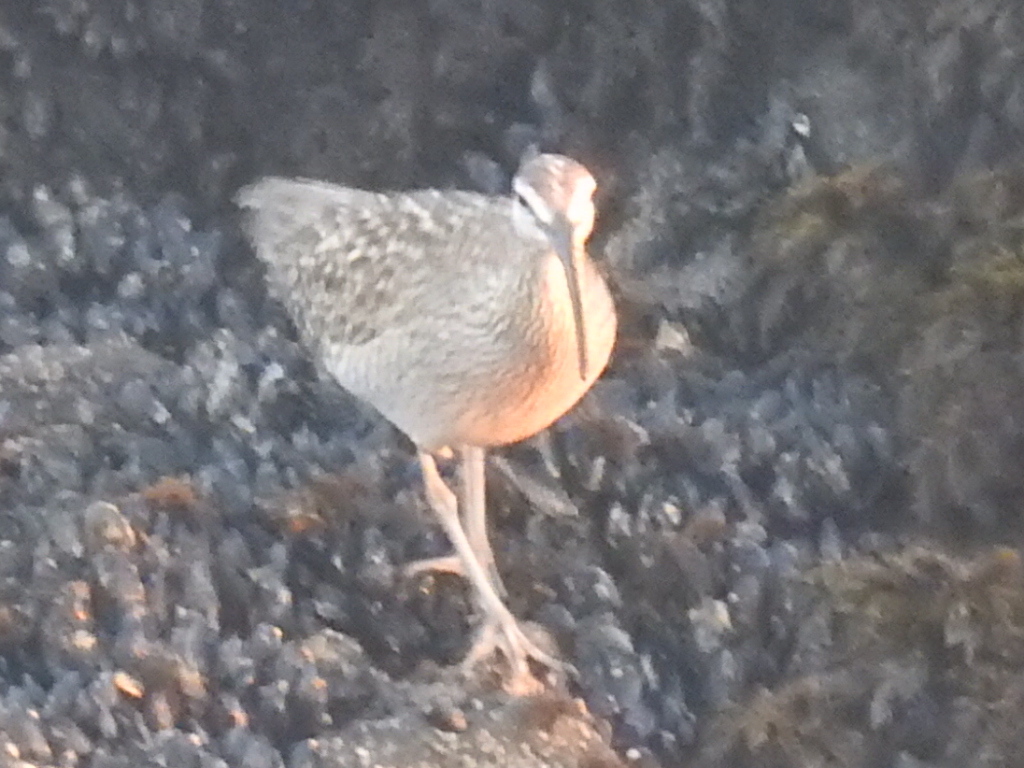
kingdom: Animalia
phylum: Chordata
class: Aves
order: Charadriiformes
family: Scolopacidae
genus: Numenius
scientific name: Numenius phaeopus
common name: Whimbrel
